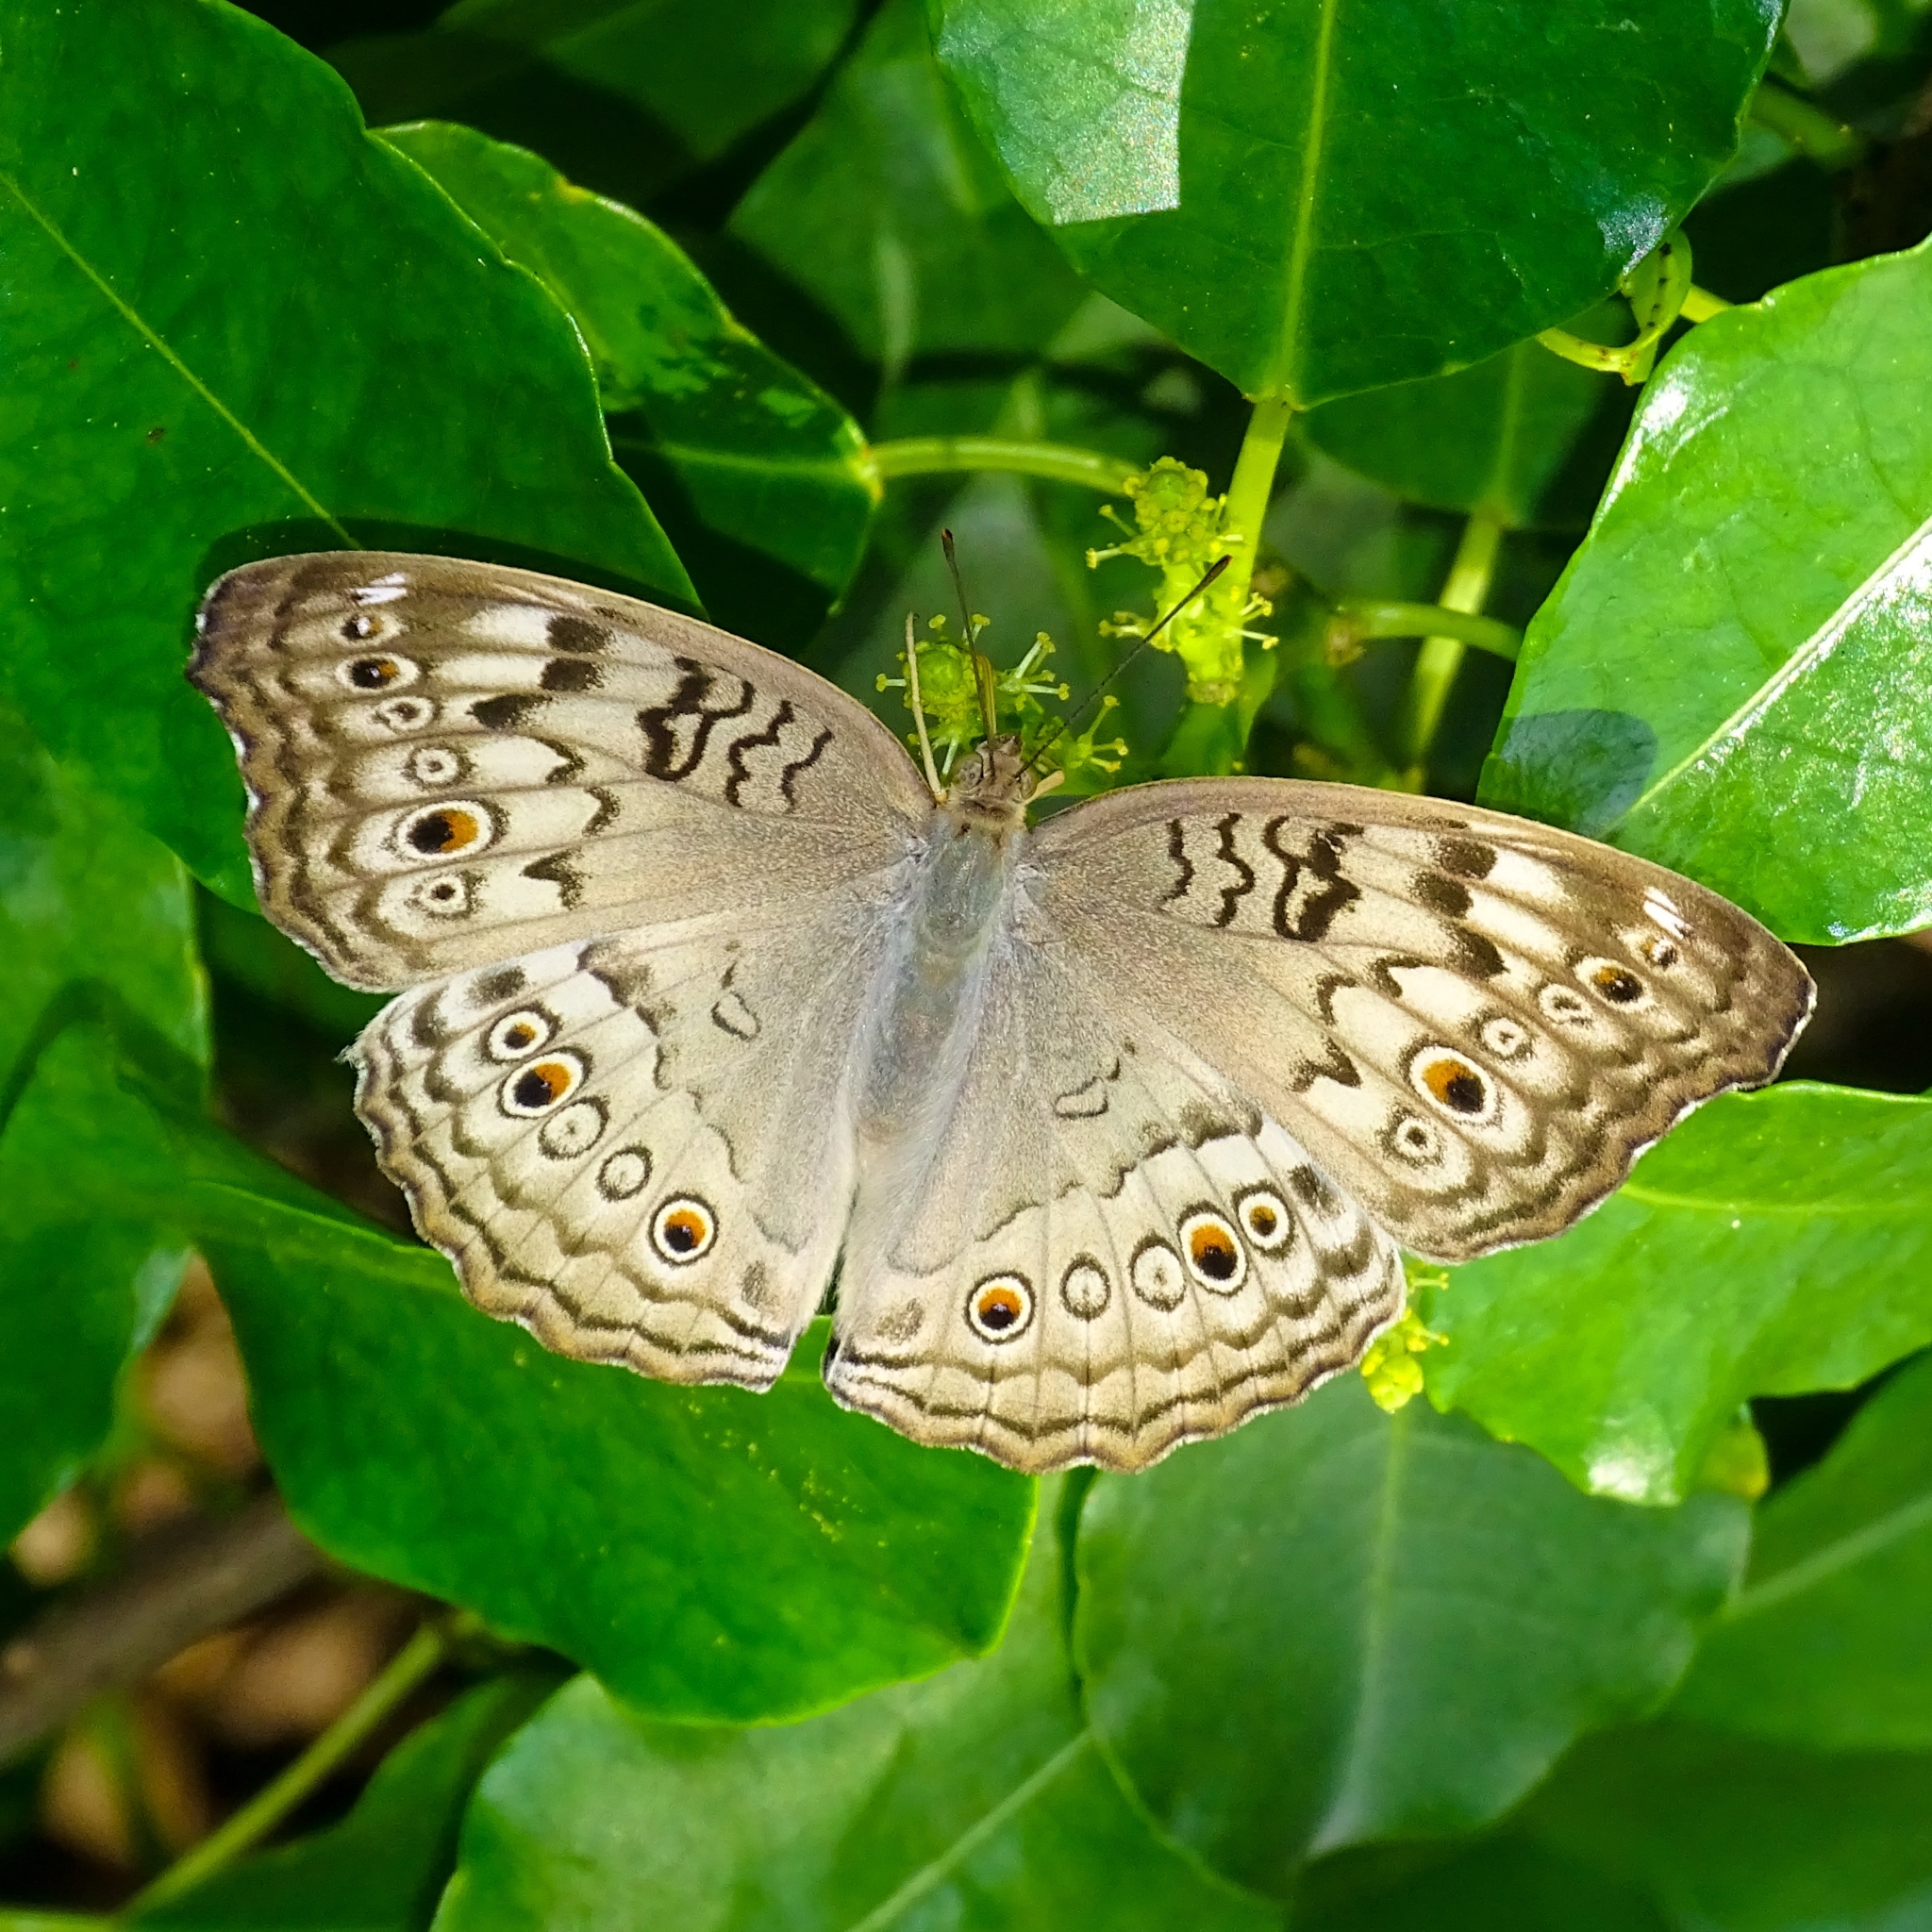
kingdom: Animalia
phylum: Arthropoda
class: Insecta
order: Lepidoptera
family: Nymphalidae
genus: Junonia
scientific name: Junonia atlites
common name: Grey pansy
